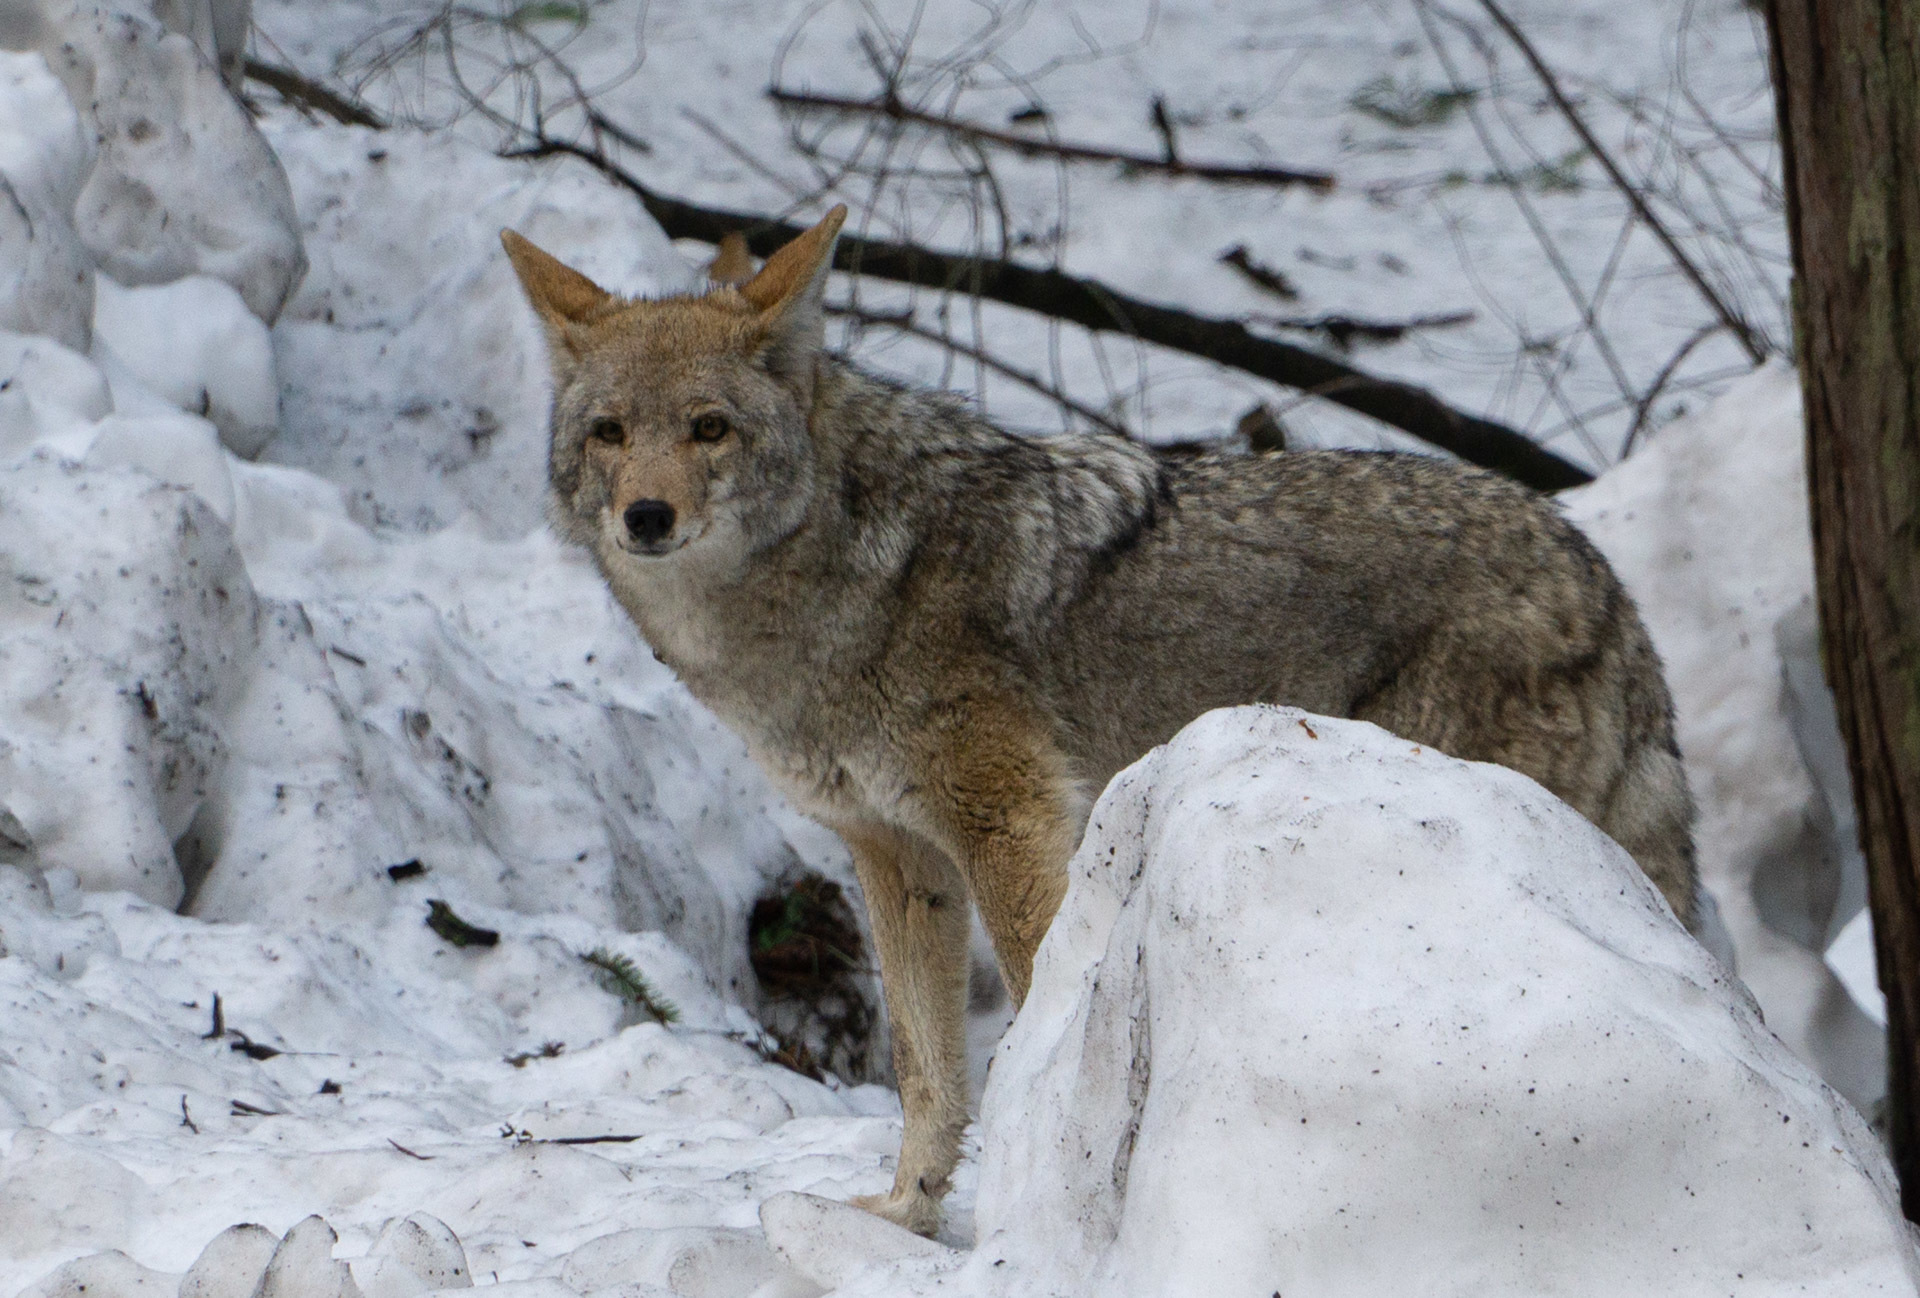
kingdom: Animalia
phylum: Chordata
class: Mammalia
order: Carnivora
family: Canidae
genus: Canis
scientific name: Canis latrans
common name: Coyote
